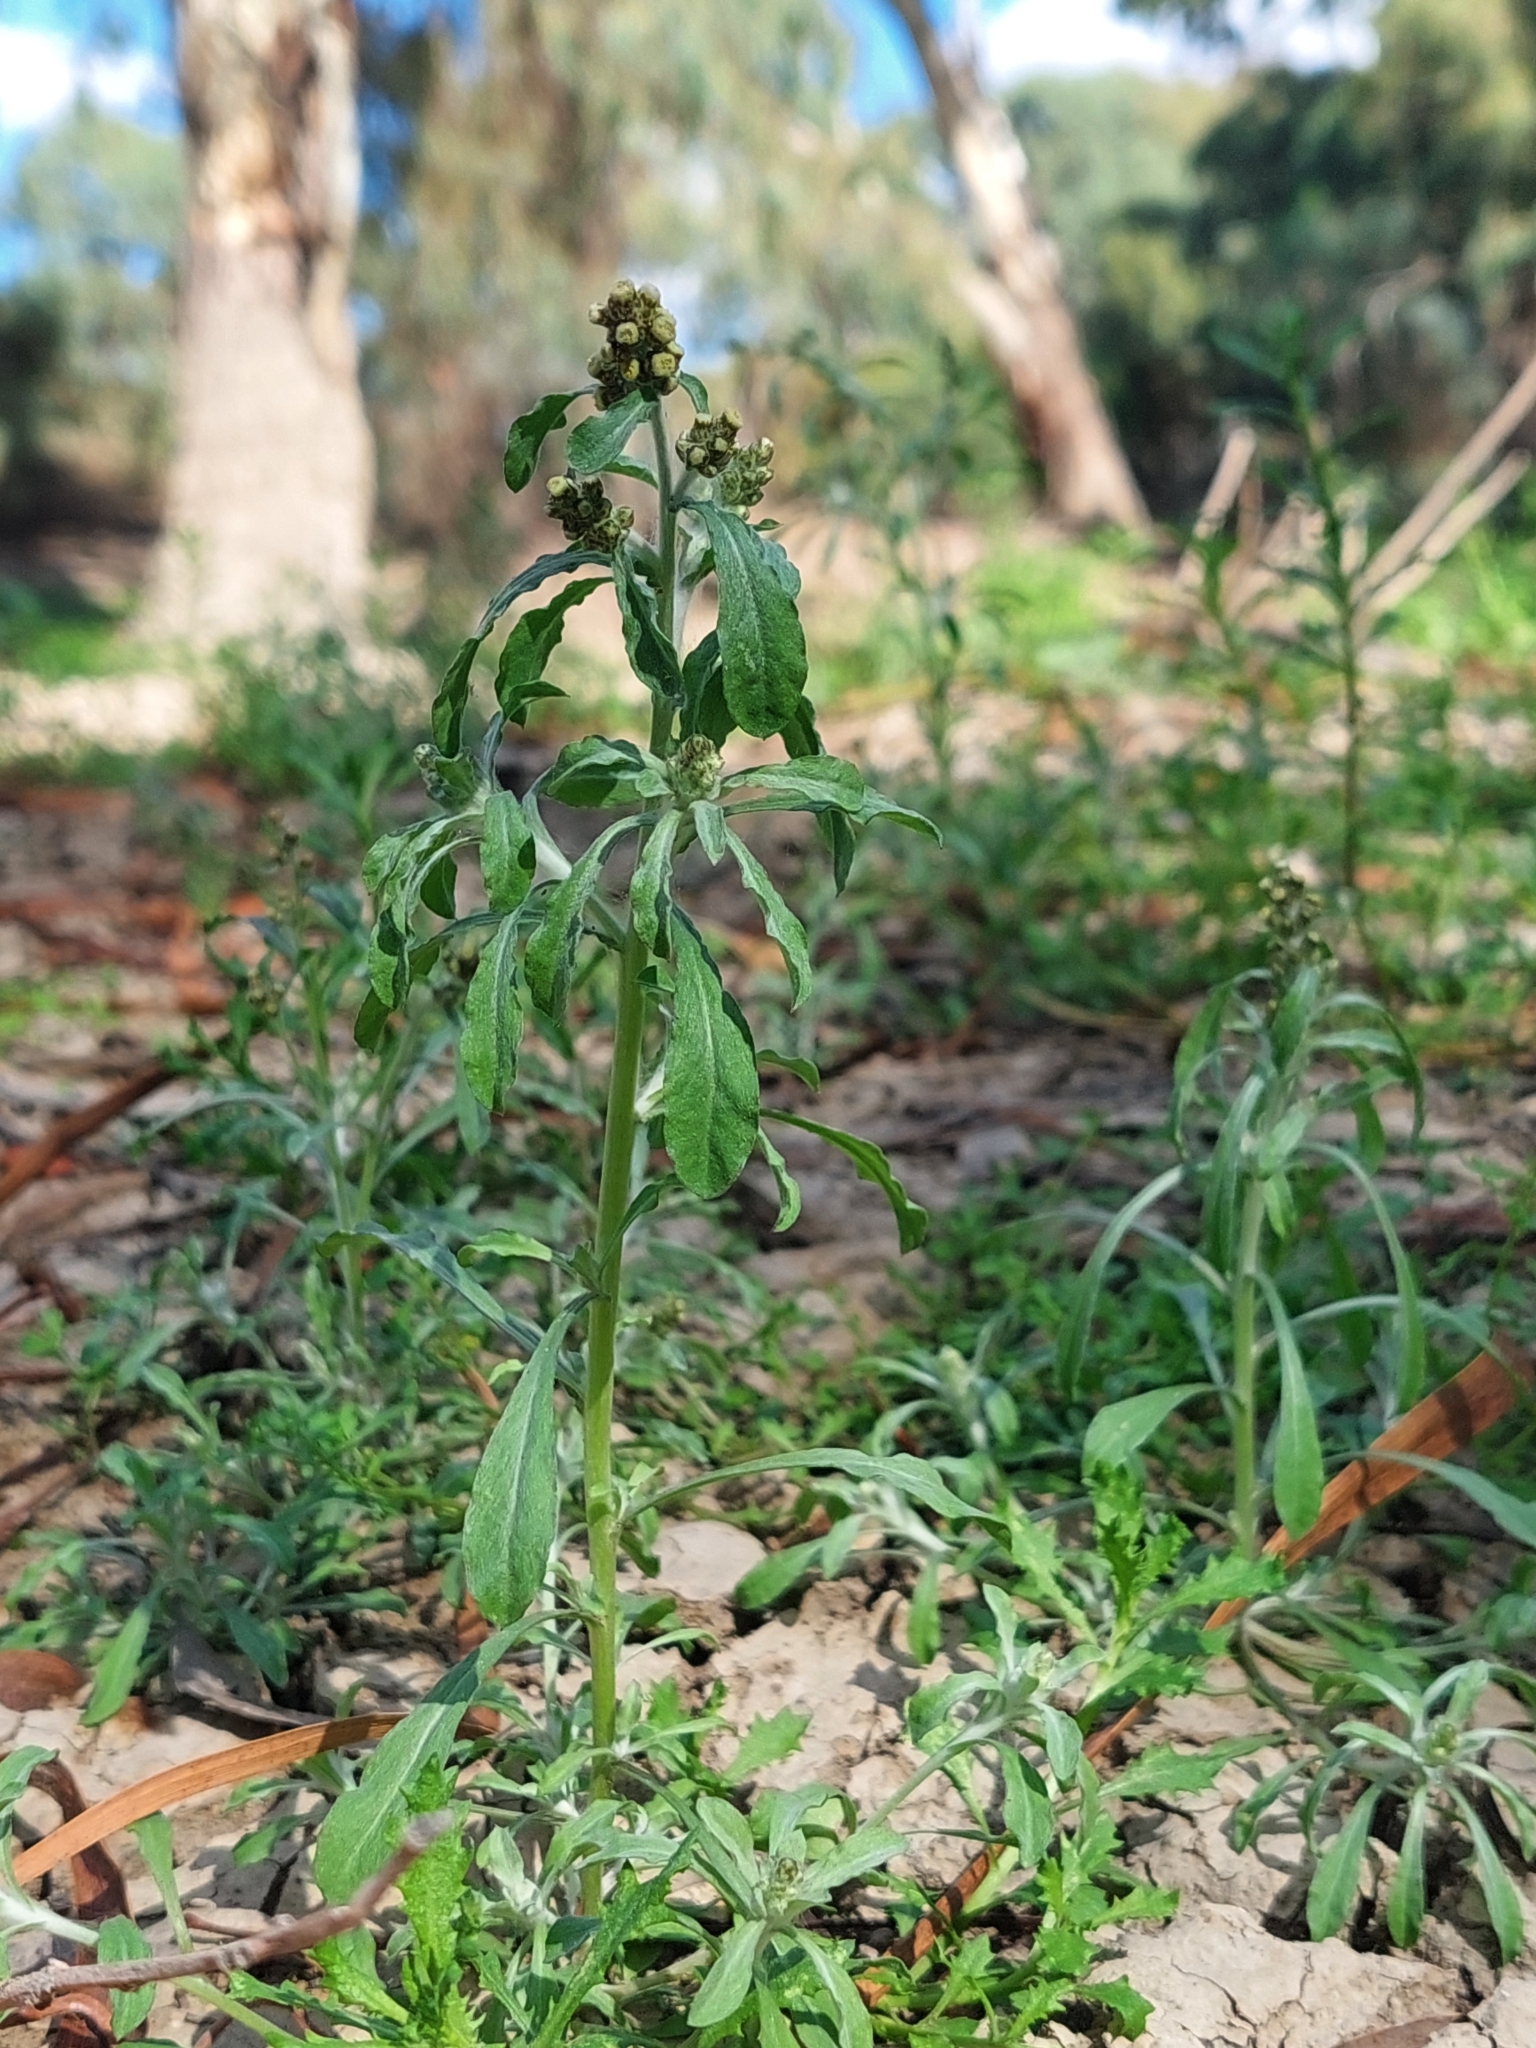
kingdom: Plantae
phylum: Tracheophyta
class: Magnoliopsida
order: Asterales
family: Asteraceae
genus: Gnaphalium
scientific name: Gnaphalium polycaulon
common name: Western cudweed
